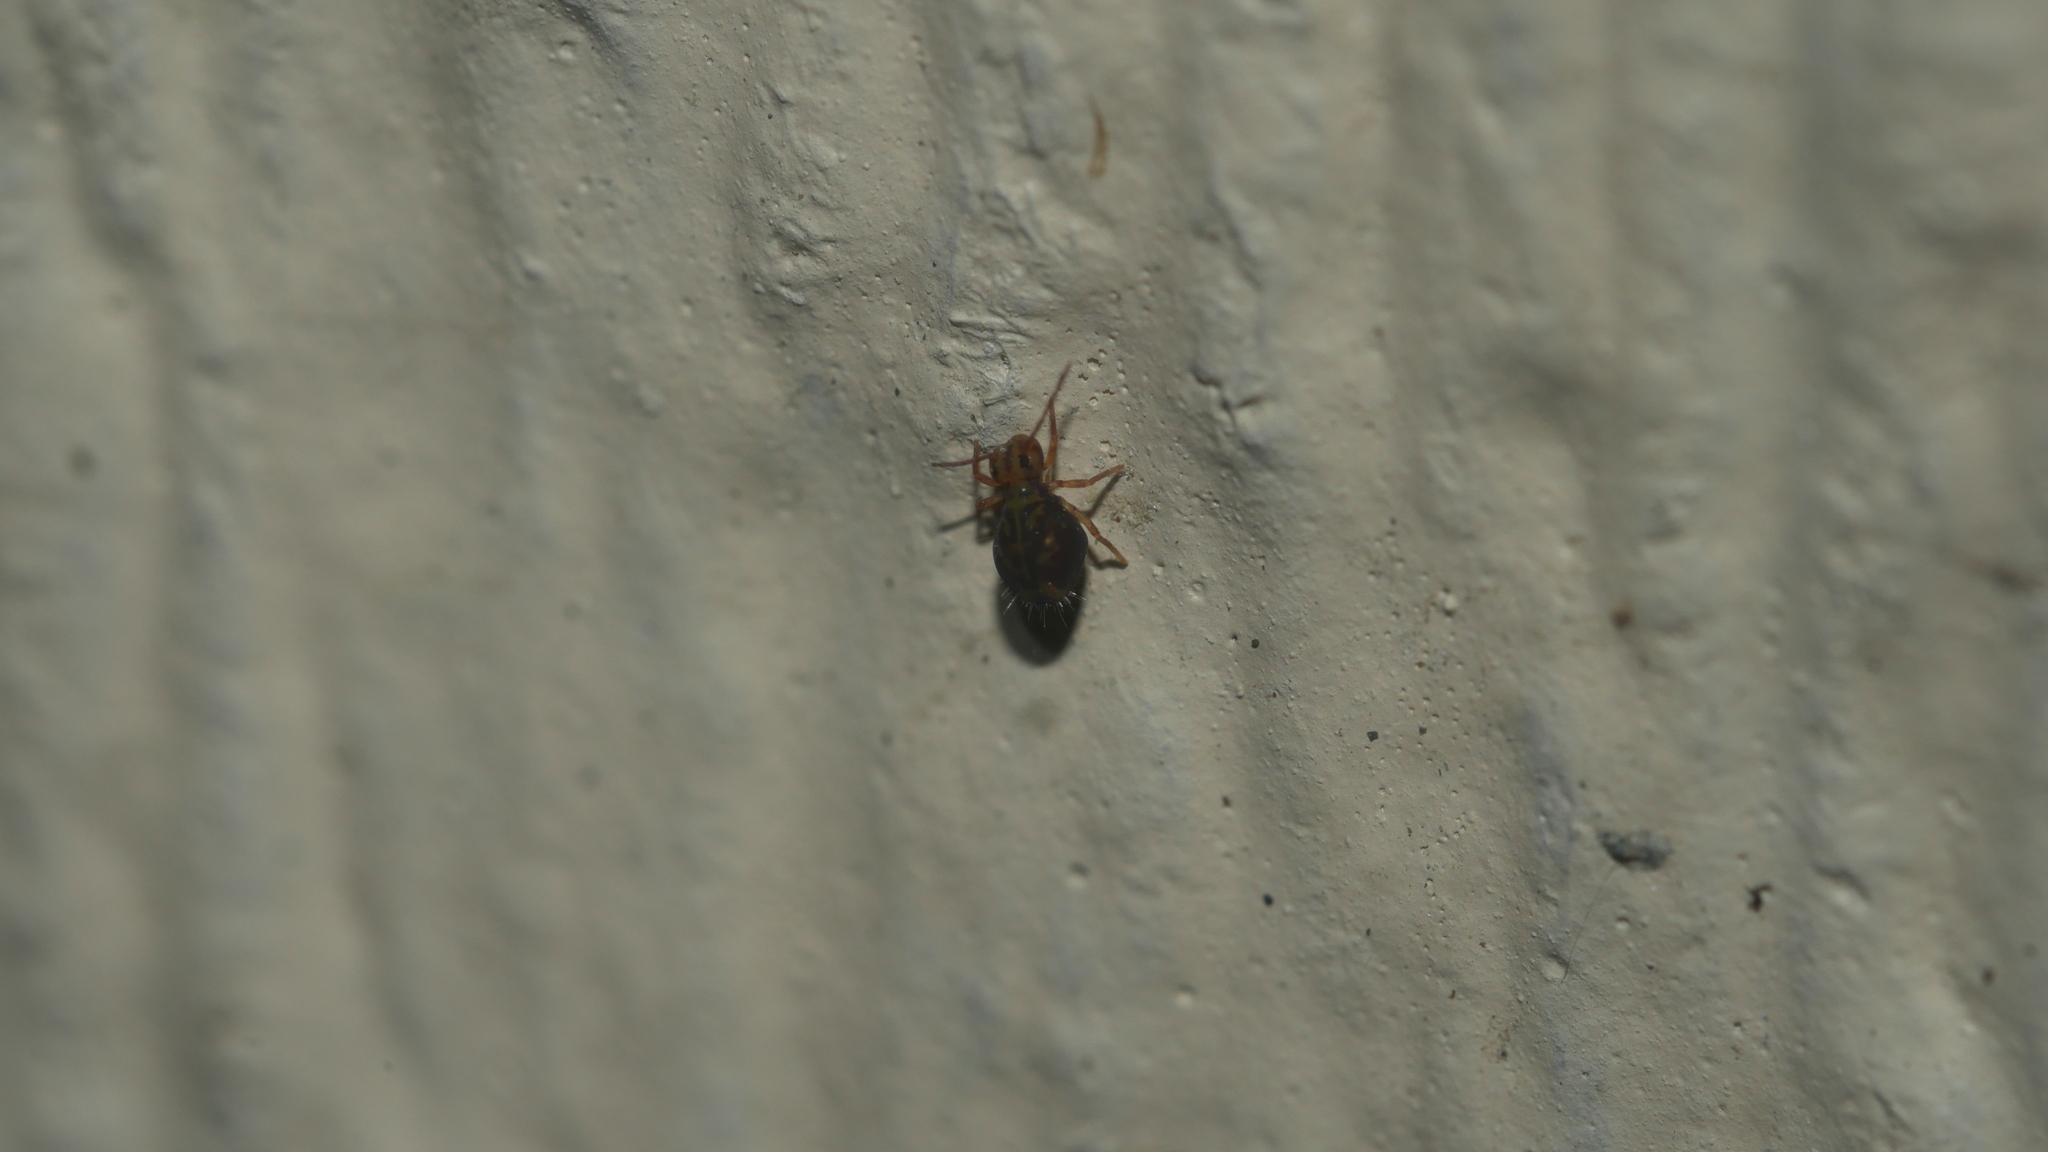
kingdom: Animalia
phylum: Arthropoda
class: Collembola
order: Symphypleona
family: Dicyrtomidae
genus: Dicyrtomina
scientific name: Dicyrtomina ornata
